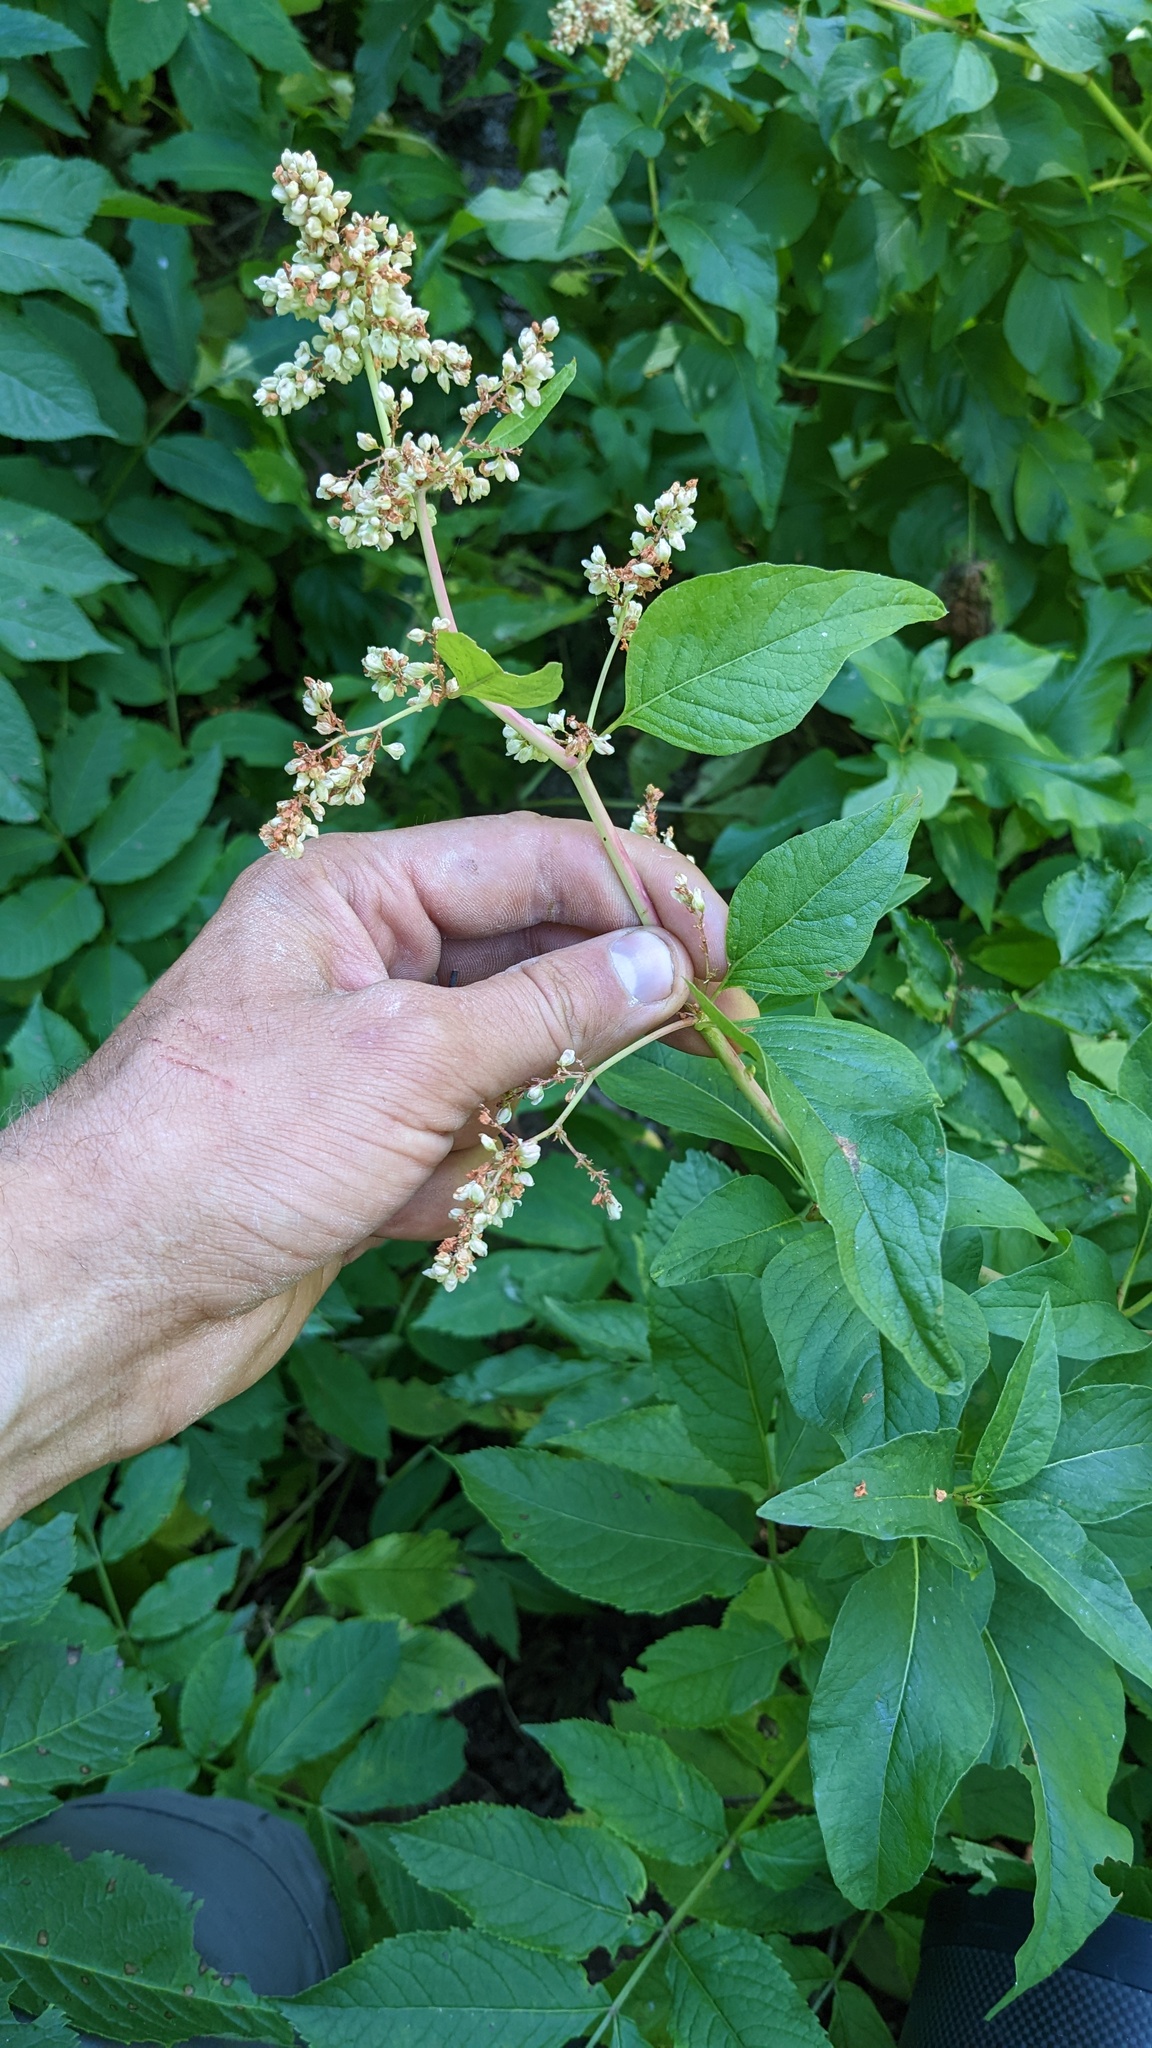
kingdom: Plantae
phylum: Tracheophyta
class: Magnoliopsida
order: Caryophyllales
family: Polygonaceae
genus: Koenigia
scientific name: Koenigia phytolaccifolia
